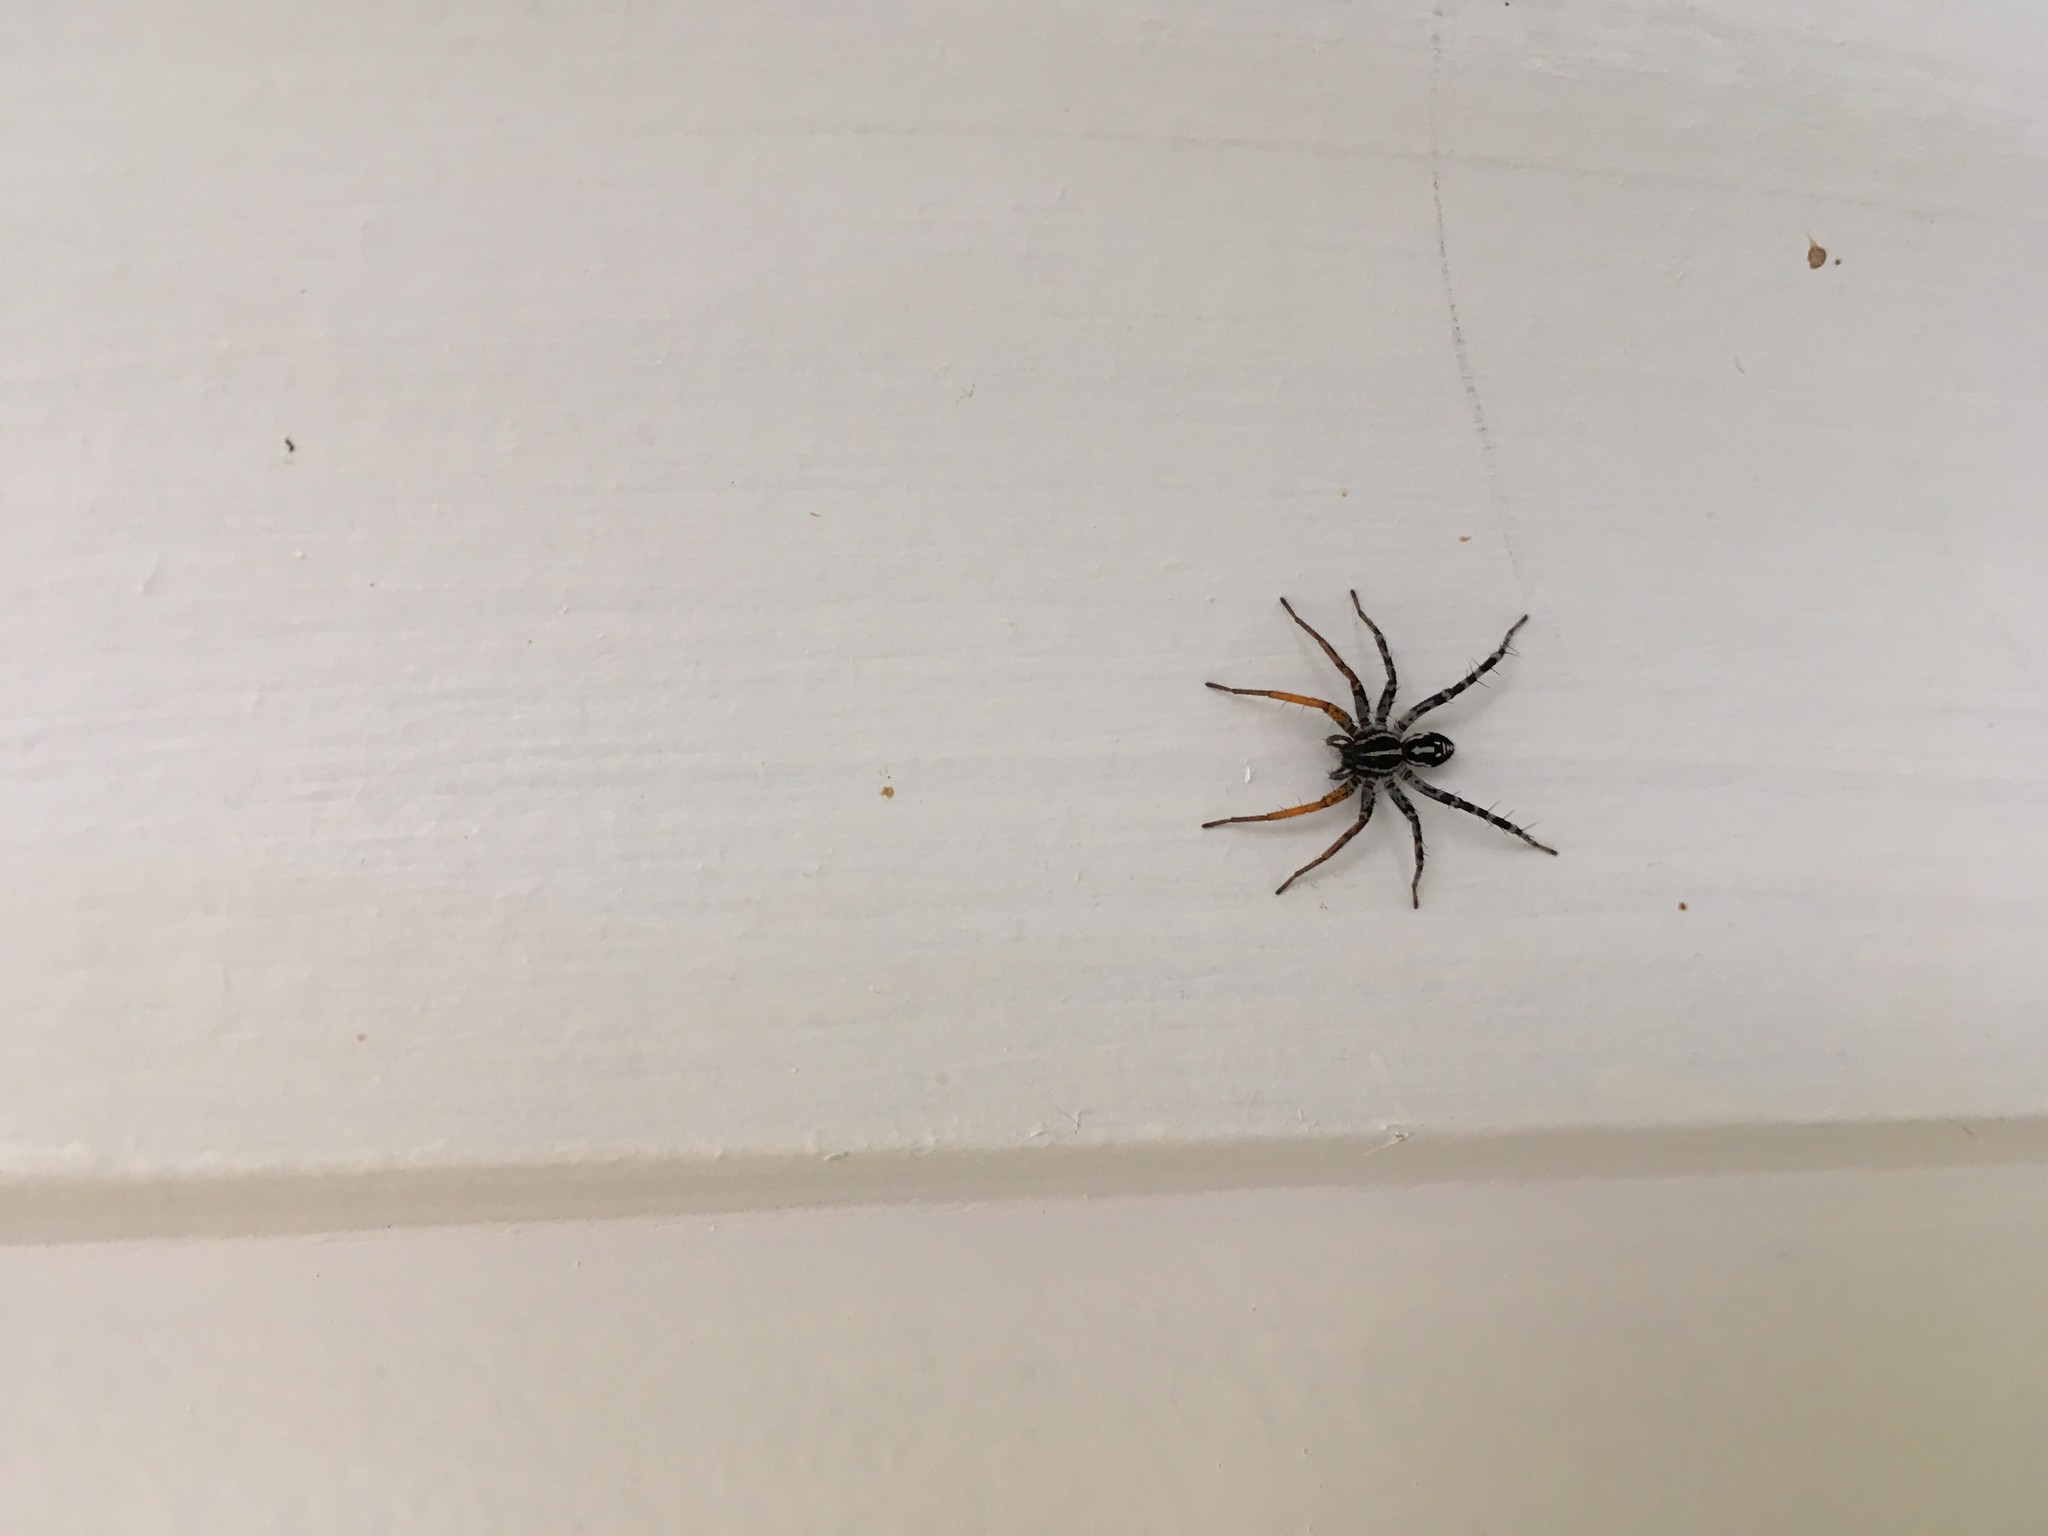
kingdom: Animalia
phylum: Arthropoda
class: Arachnida
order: Araneae
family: Corinnidae
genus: Nyssus
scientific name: Nyssus coloripes
